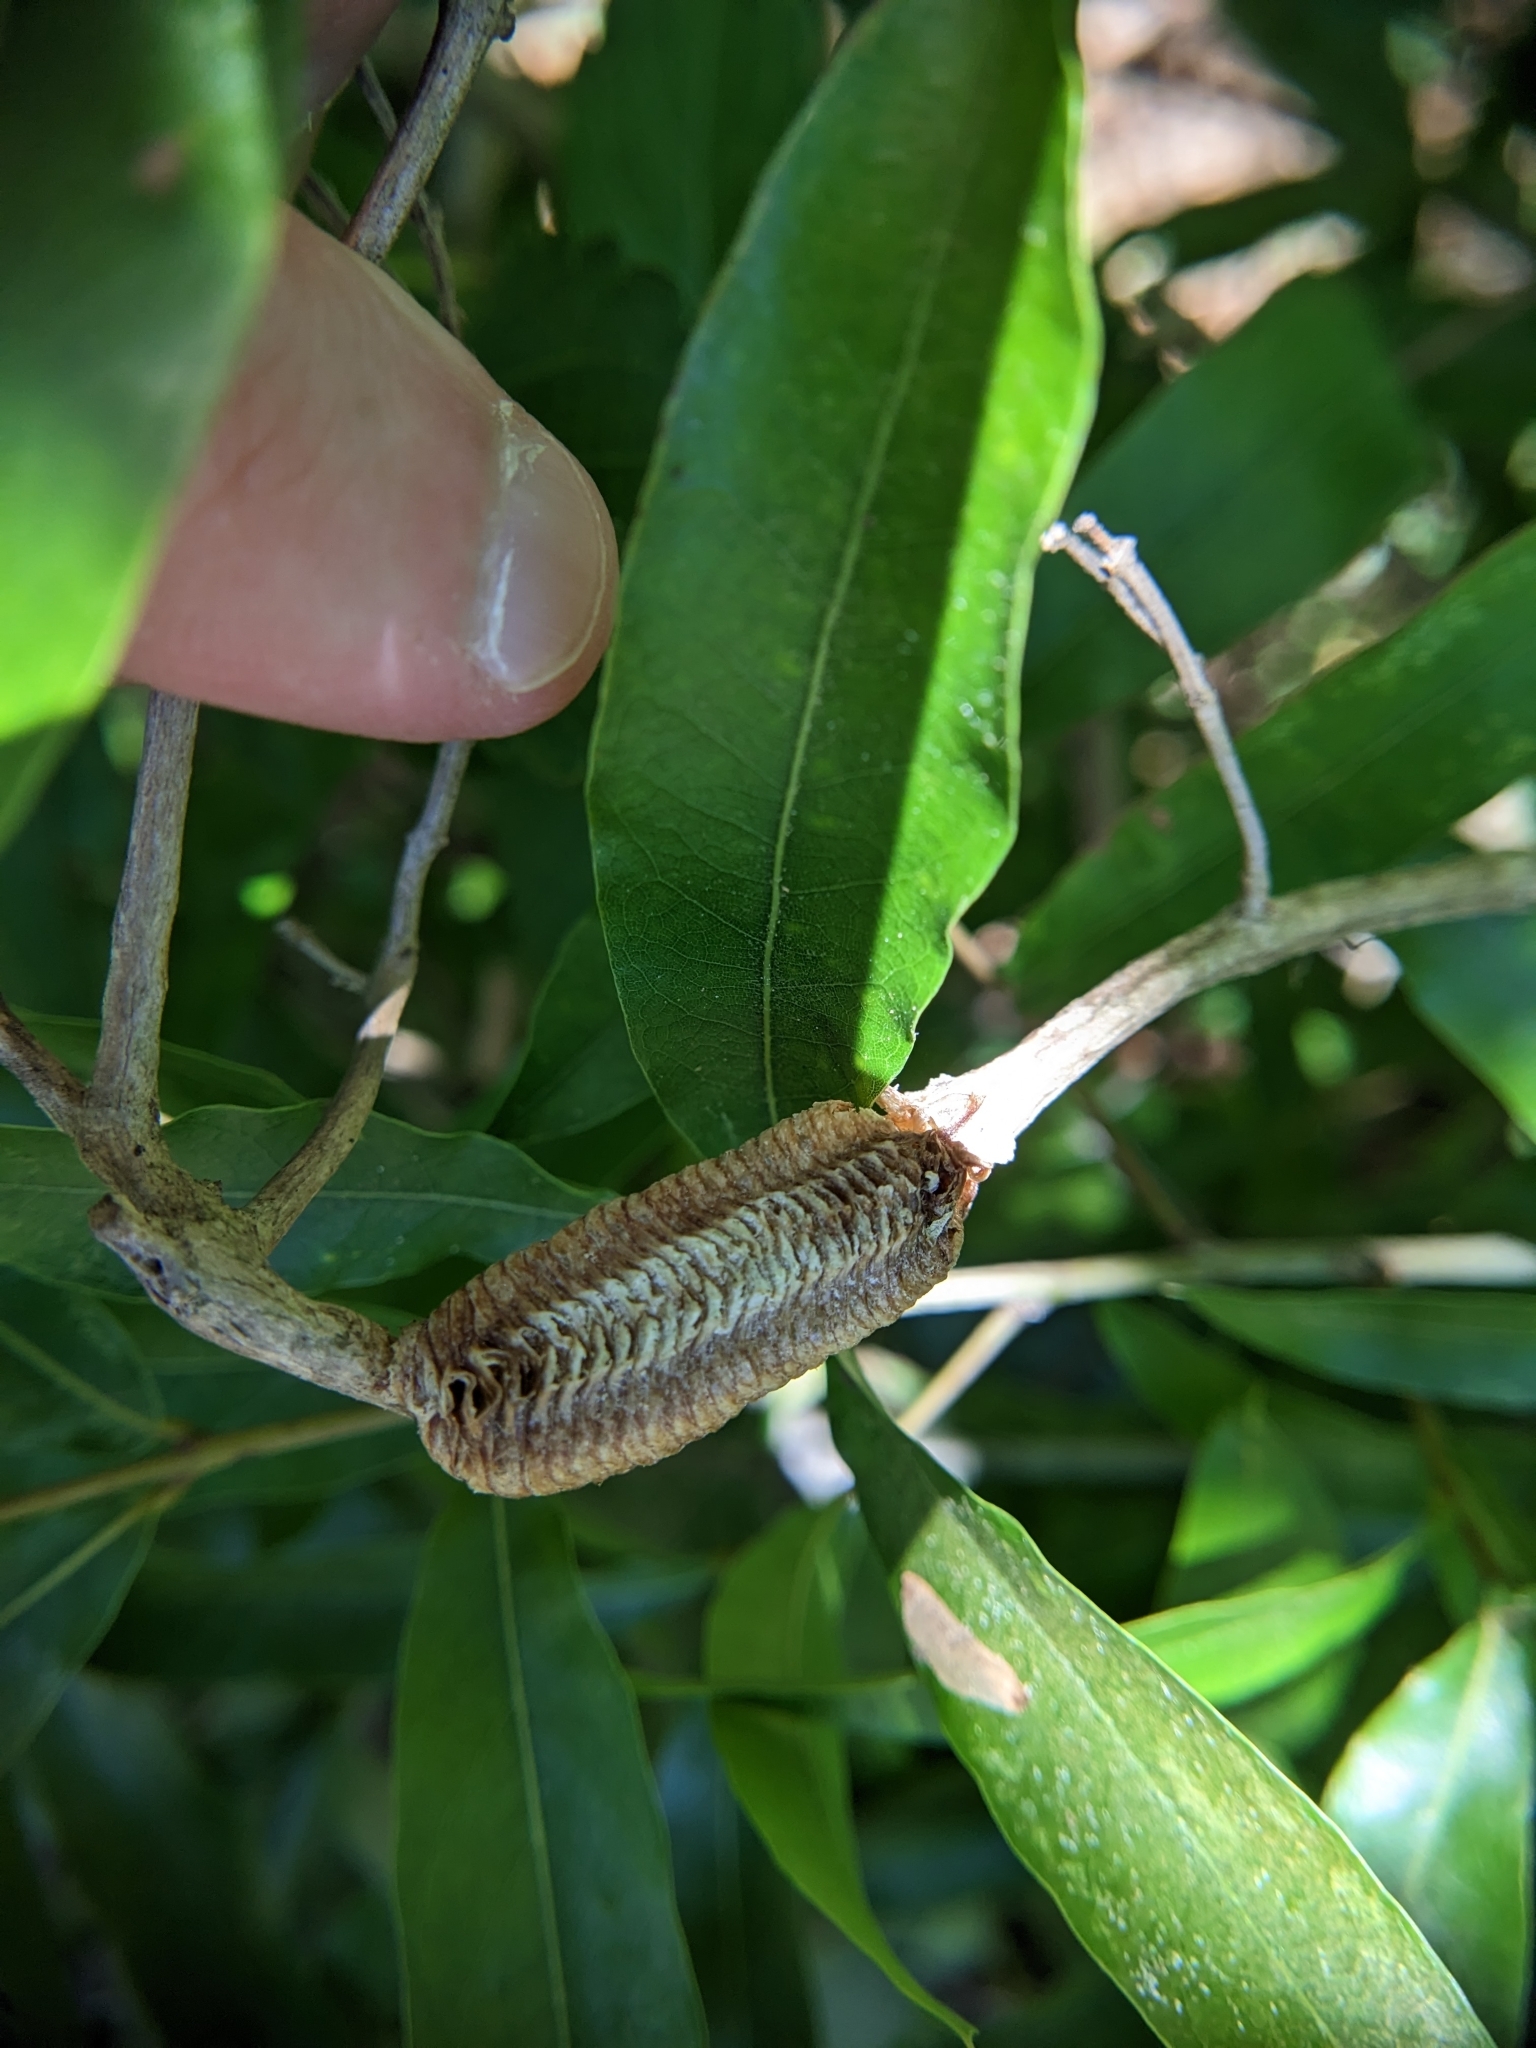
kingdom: Animalia
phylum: Arthropoda
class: Insecta
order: Mantodea
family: Mantidae
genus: Stagmomantis
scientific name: Stagmomantis carolina
